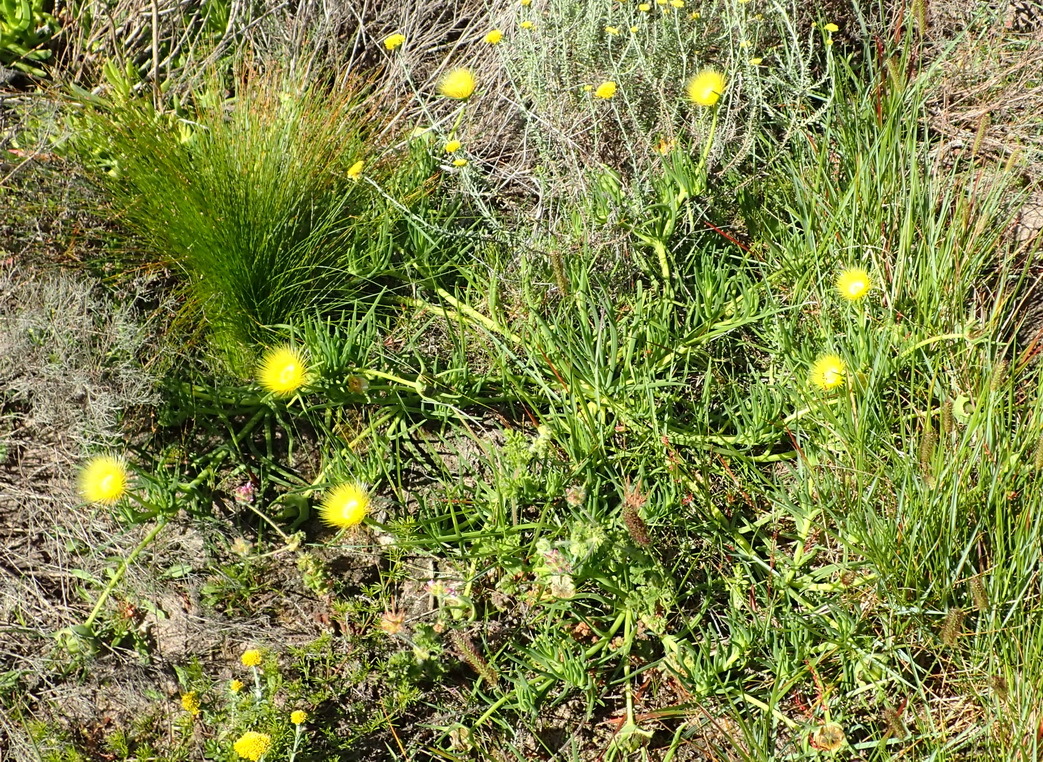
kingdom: Plantae
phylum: Tracheophyta
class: Magnoliopsida
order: Caryophyllales
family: Aizoaceae
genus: Conicosia
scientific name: Conicosia pugioniformis
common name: Narrow-leaved iceplant
